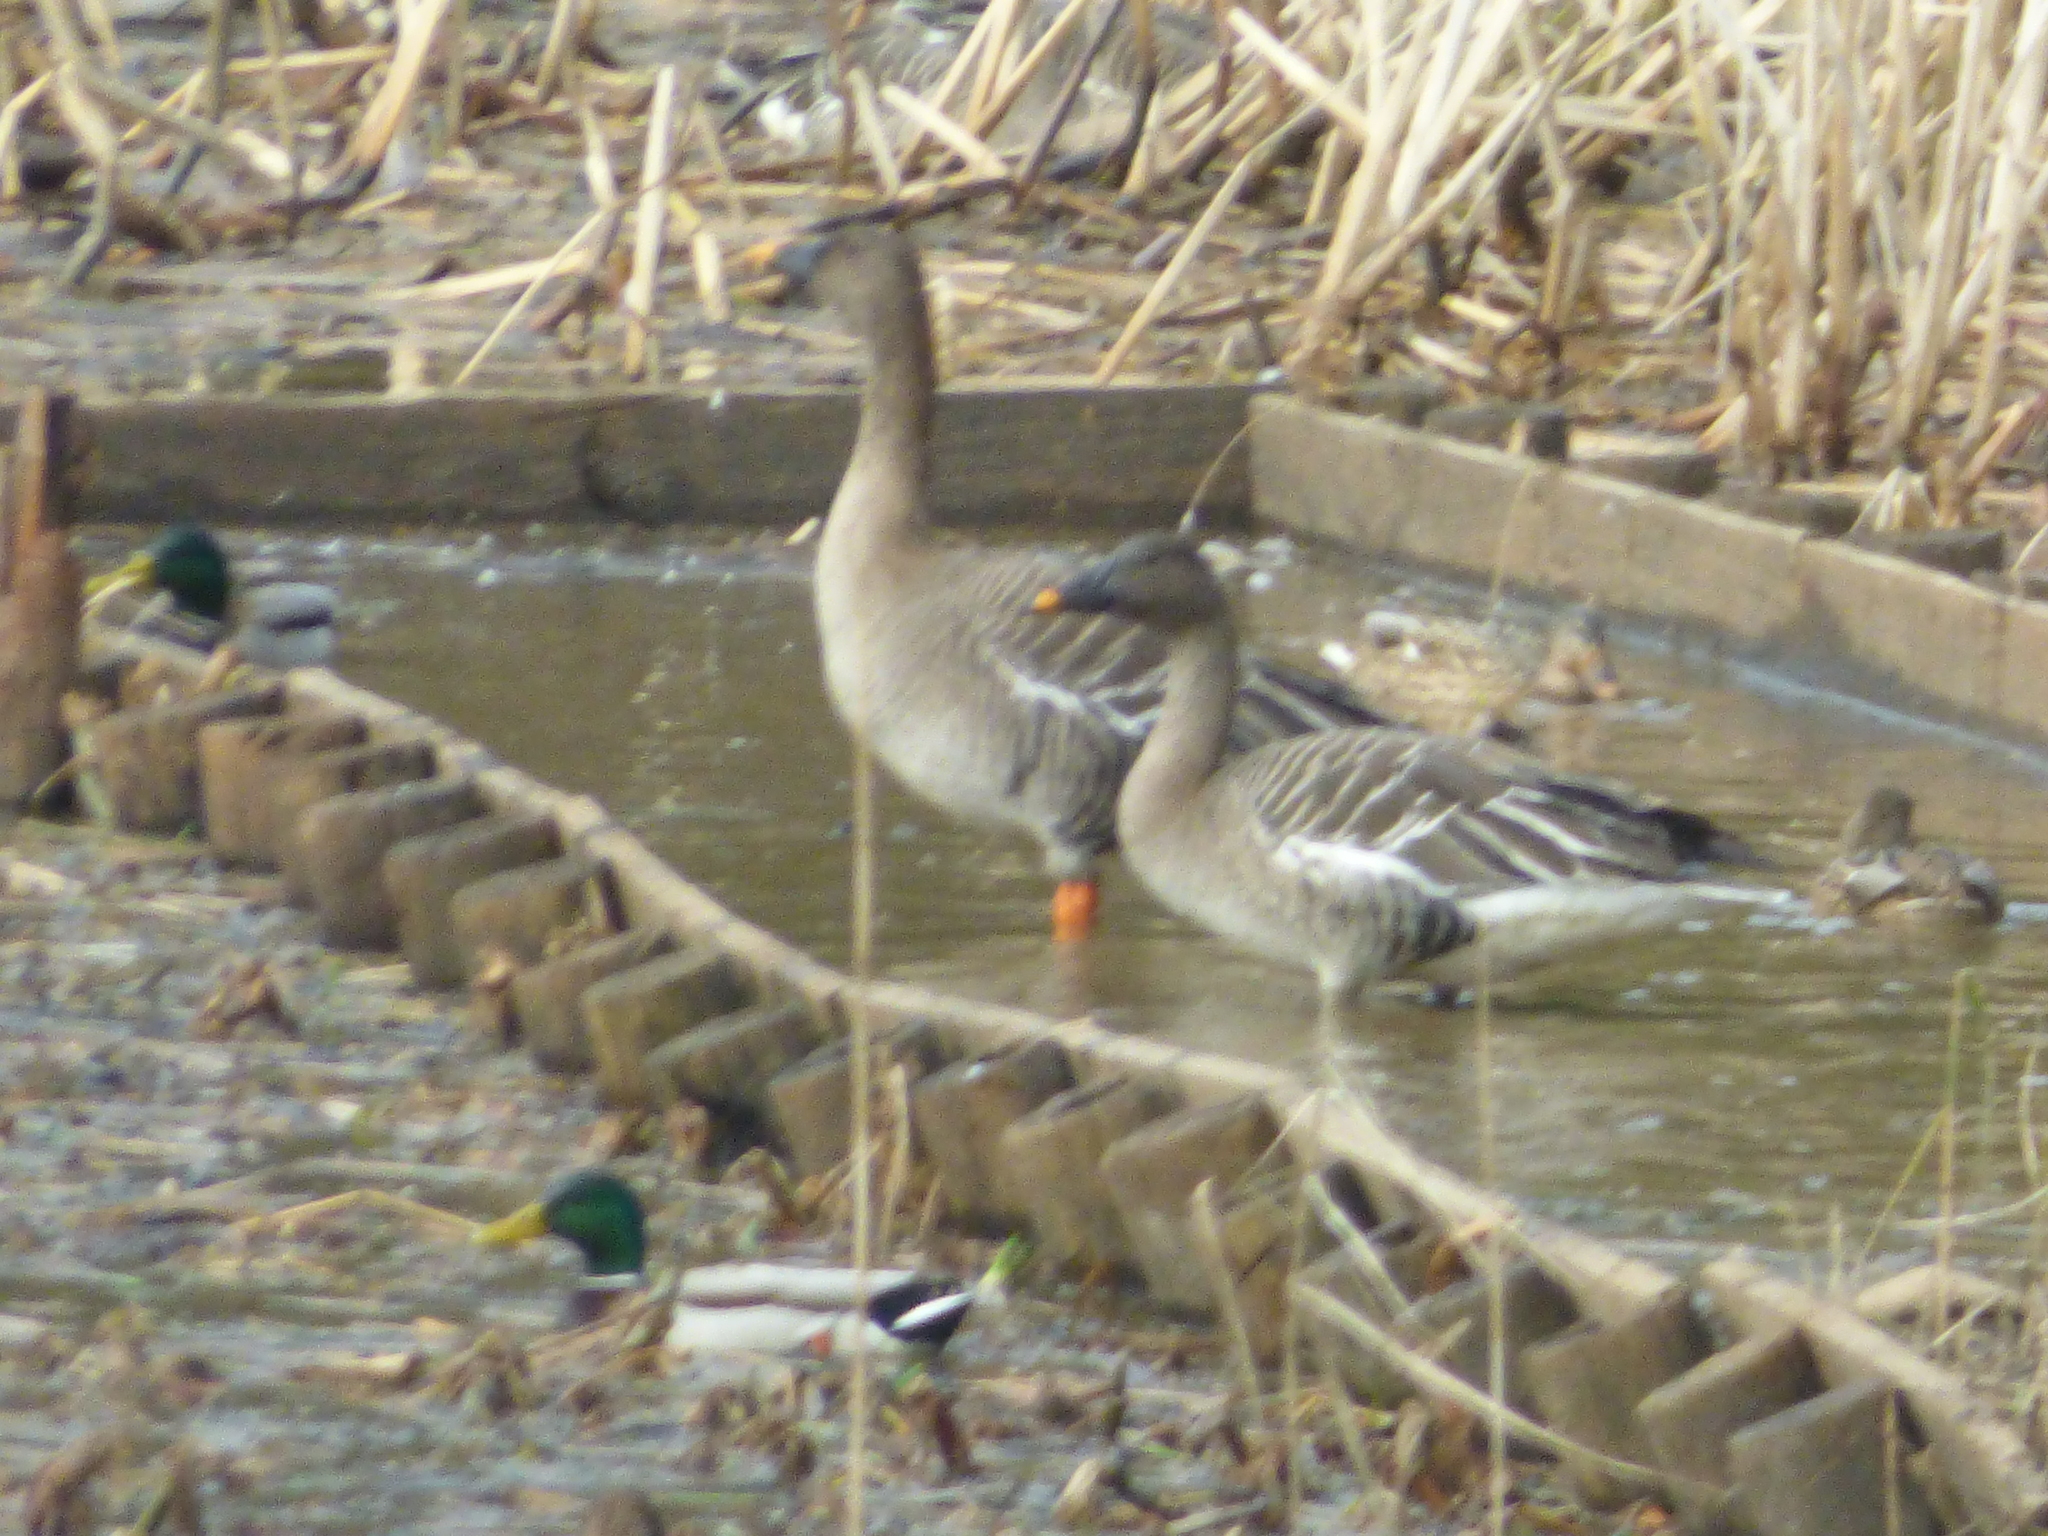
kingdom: Animalia
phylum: Chordata
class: Aves
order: Anseriformes
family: Anatidae
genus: Anser
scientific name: Anser fabalis
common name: Bean goose
